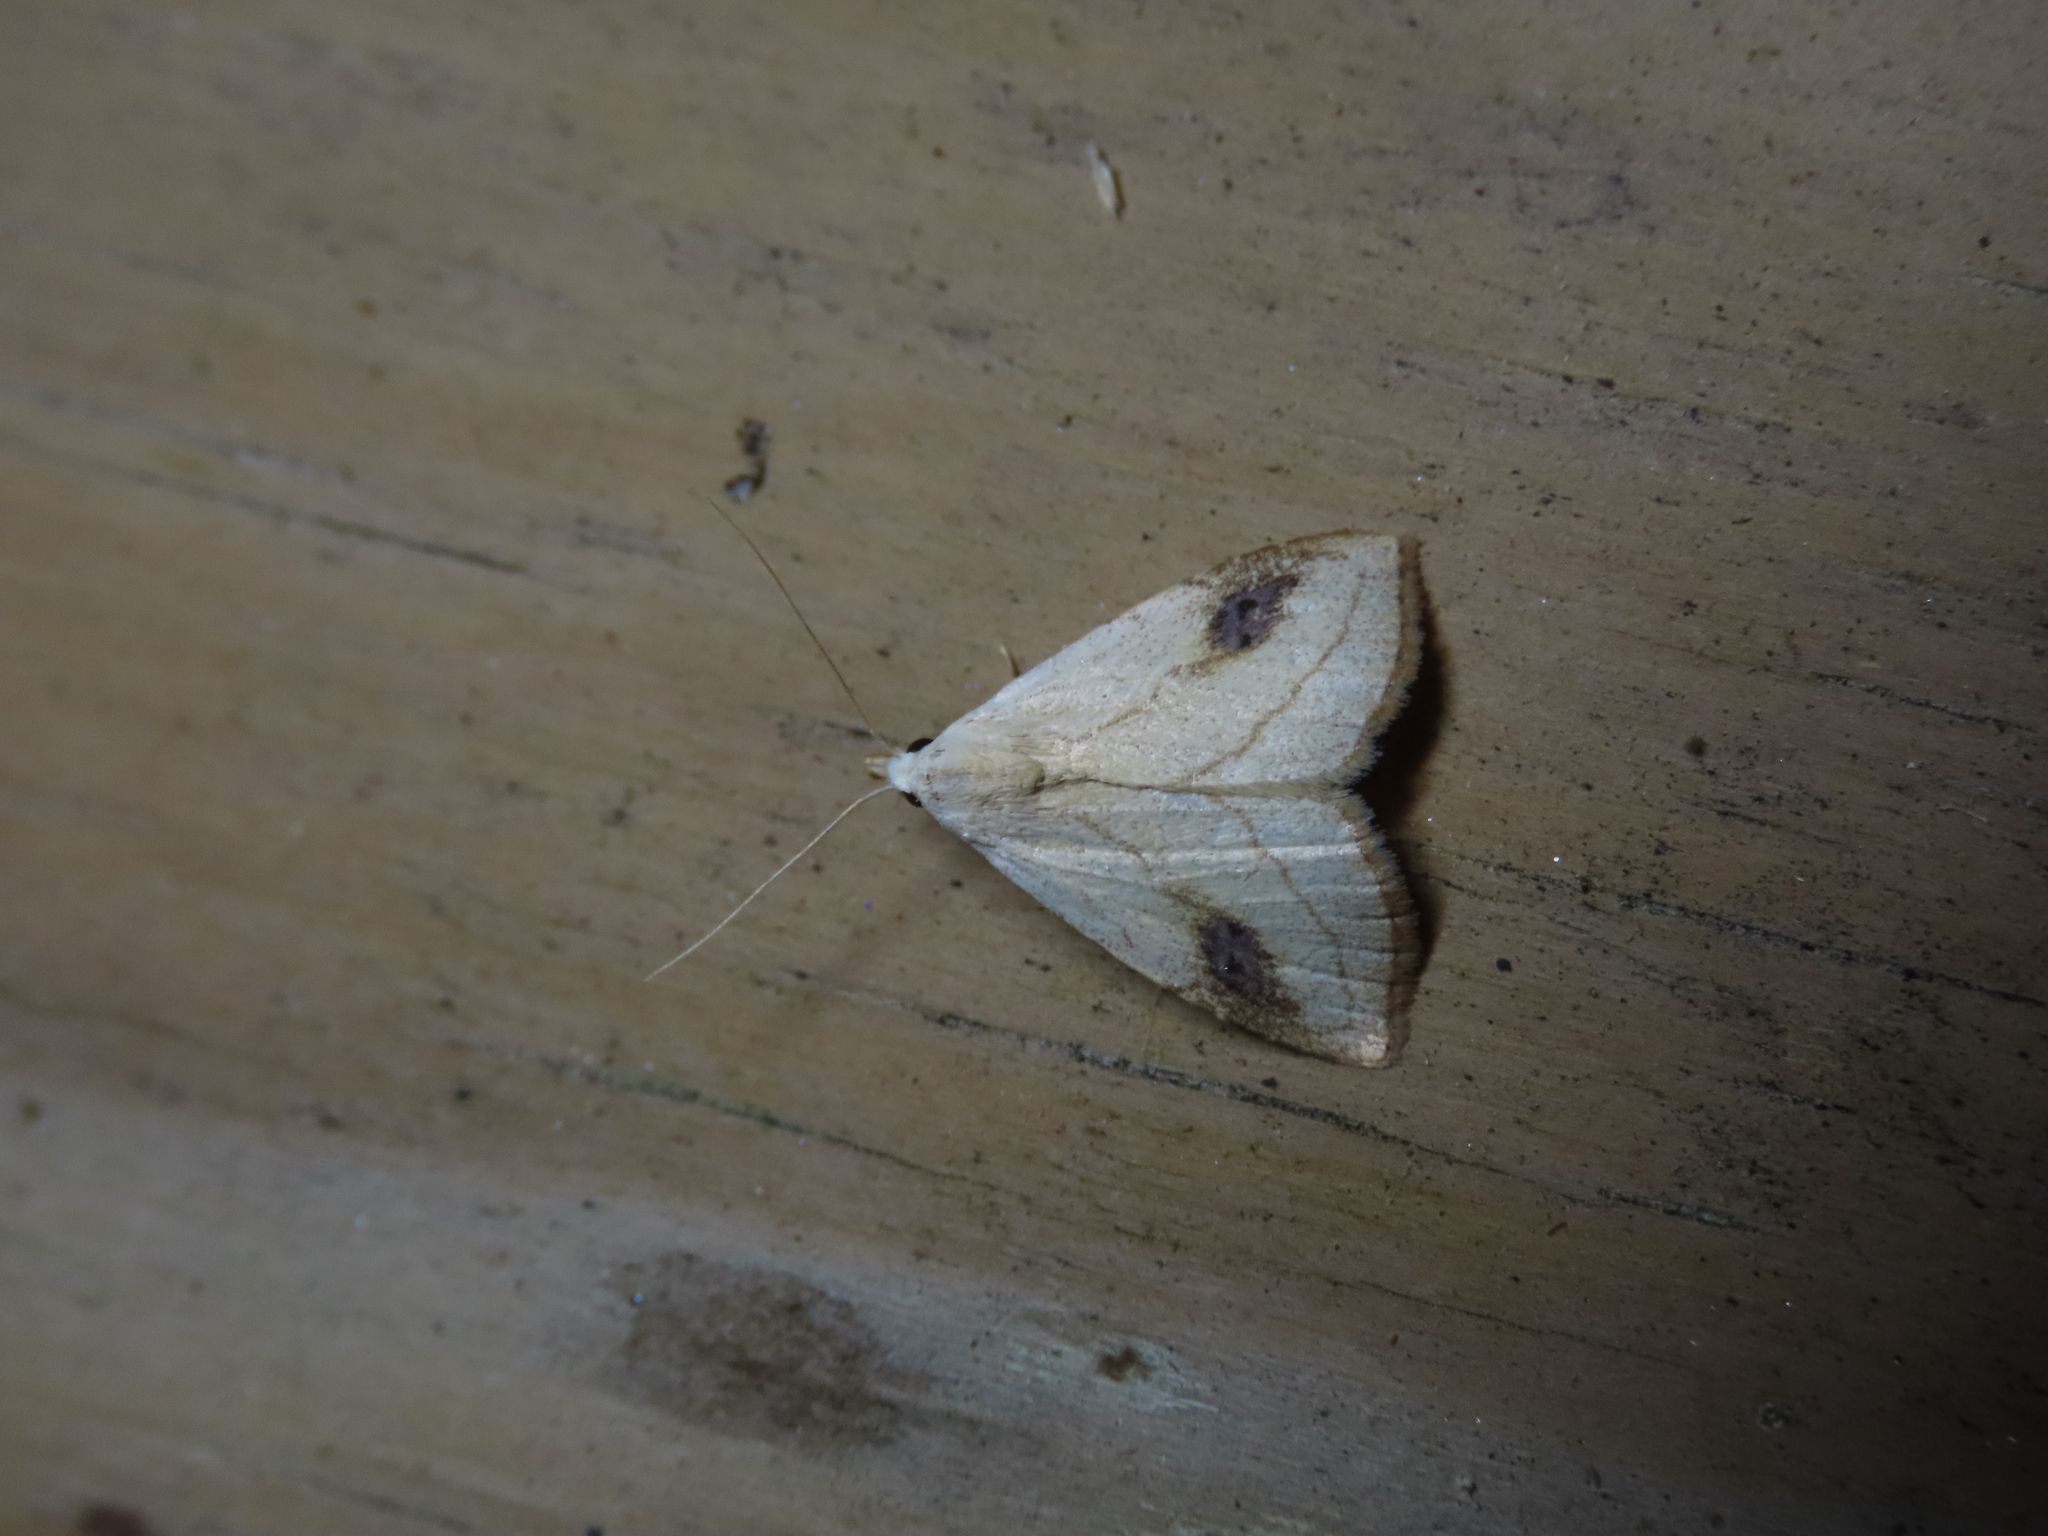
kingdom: Animalia
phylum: Arthropoda
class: Insecta
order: Lepidoptera
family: Erebidae
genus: Rivula
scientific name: Rivula propinqualis
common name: Spotted grass moth
